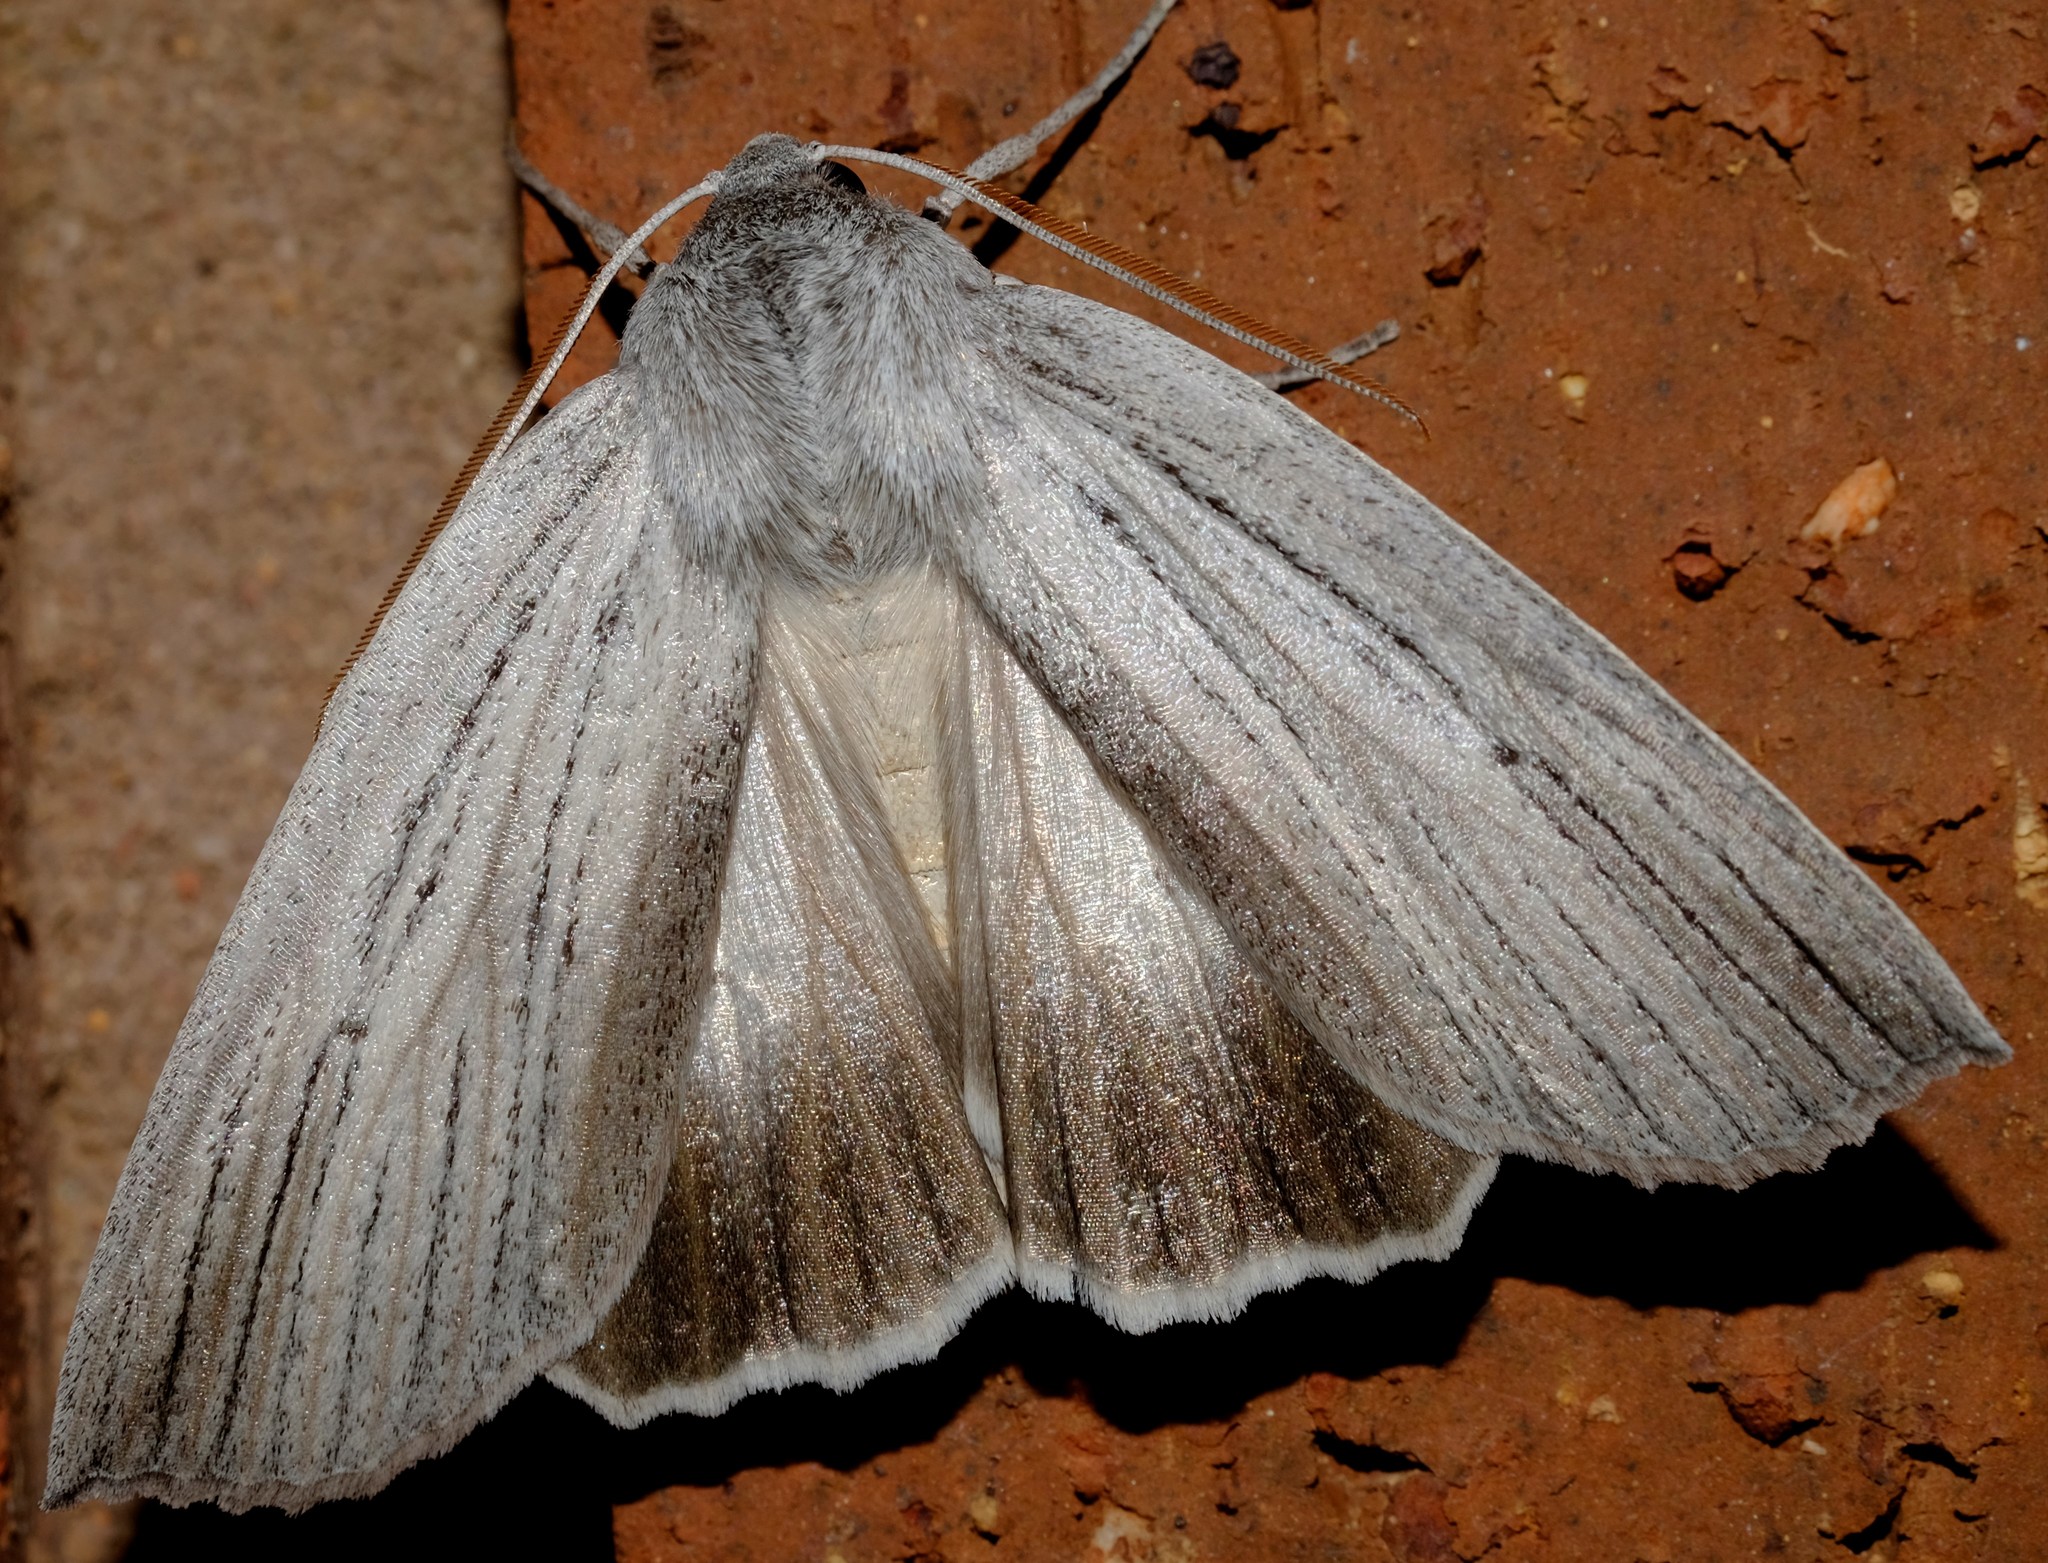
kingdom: Animalia
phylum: Arthropoda
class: Insecta
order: Lepidoptera
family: Geometridae
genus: Paralaea
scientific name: Paralaea polysticha
